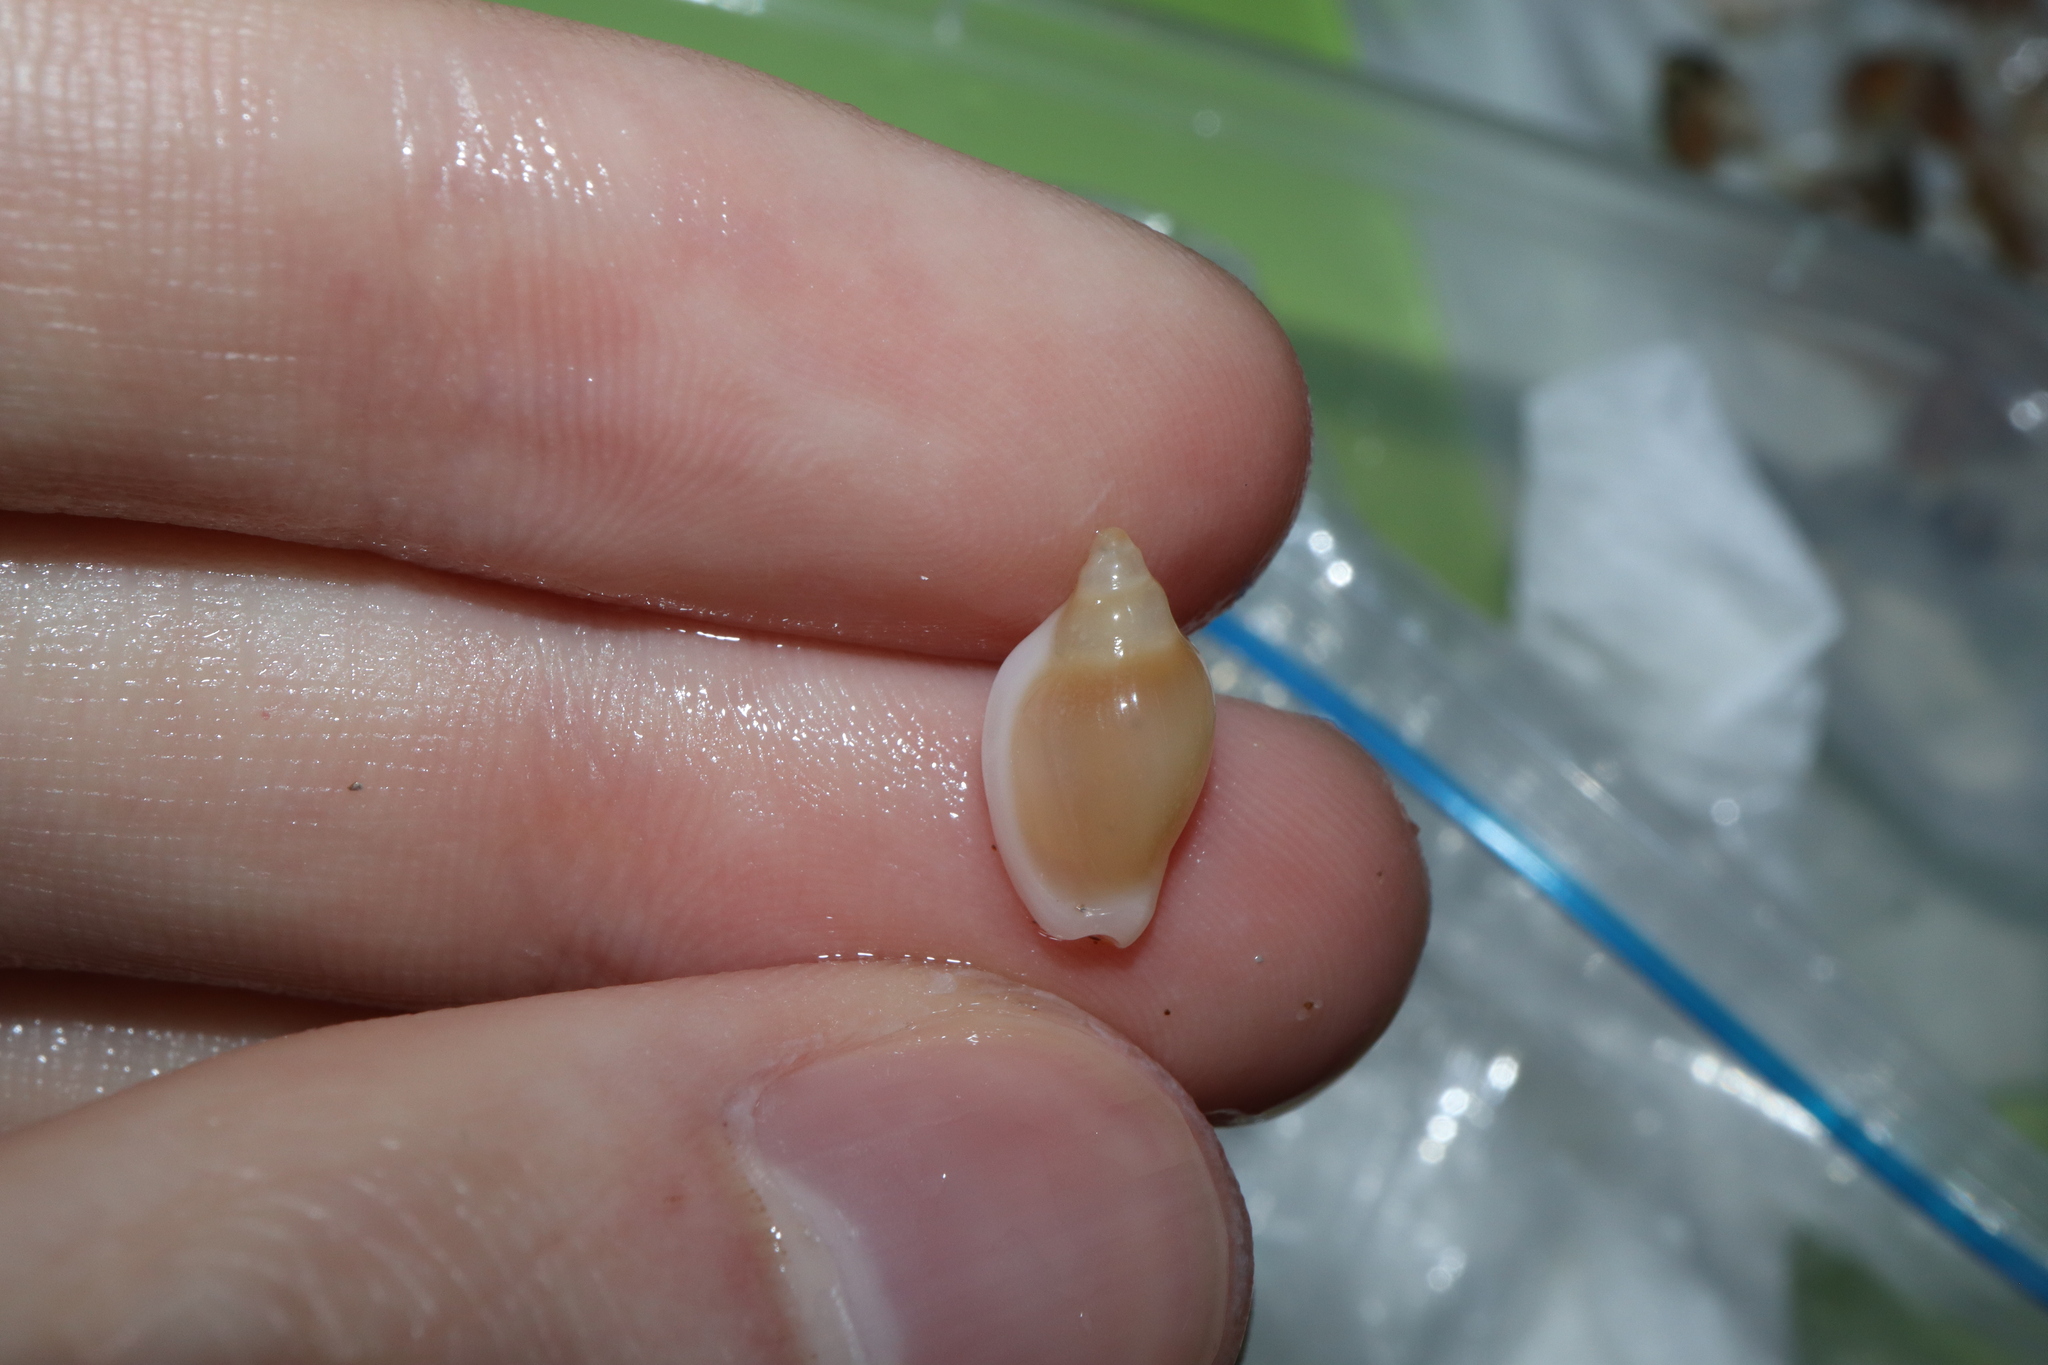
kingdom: Animalia
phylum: Mollusca
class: Gastropoda
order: Neogastropoda
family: Marginellidae
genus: Austroginella
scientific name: Austroginella muscaria
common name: Fly marginella
